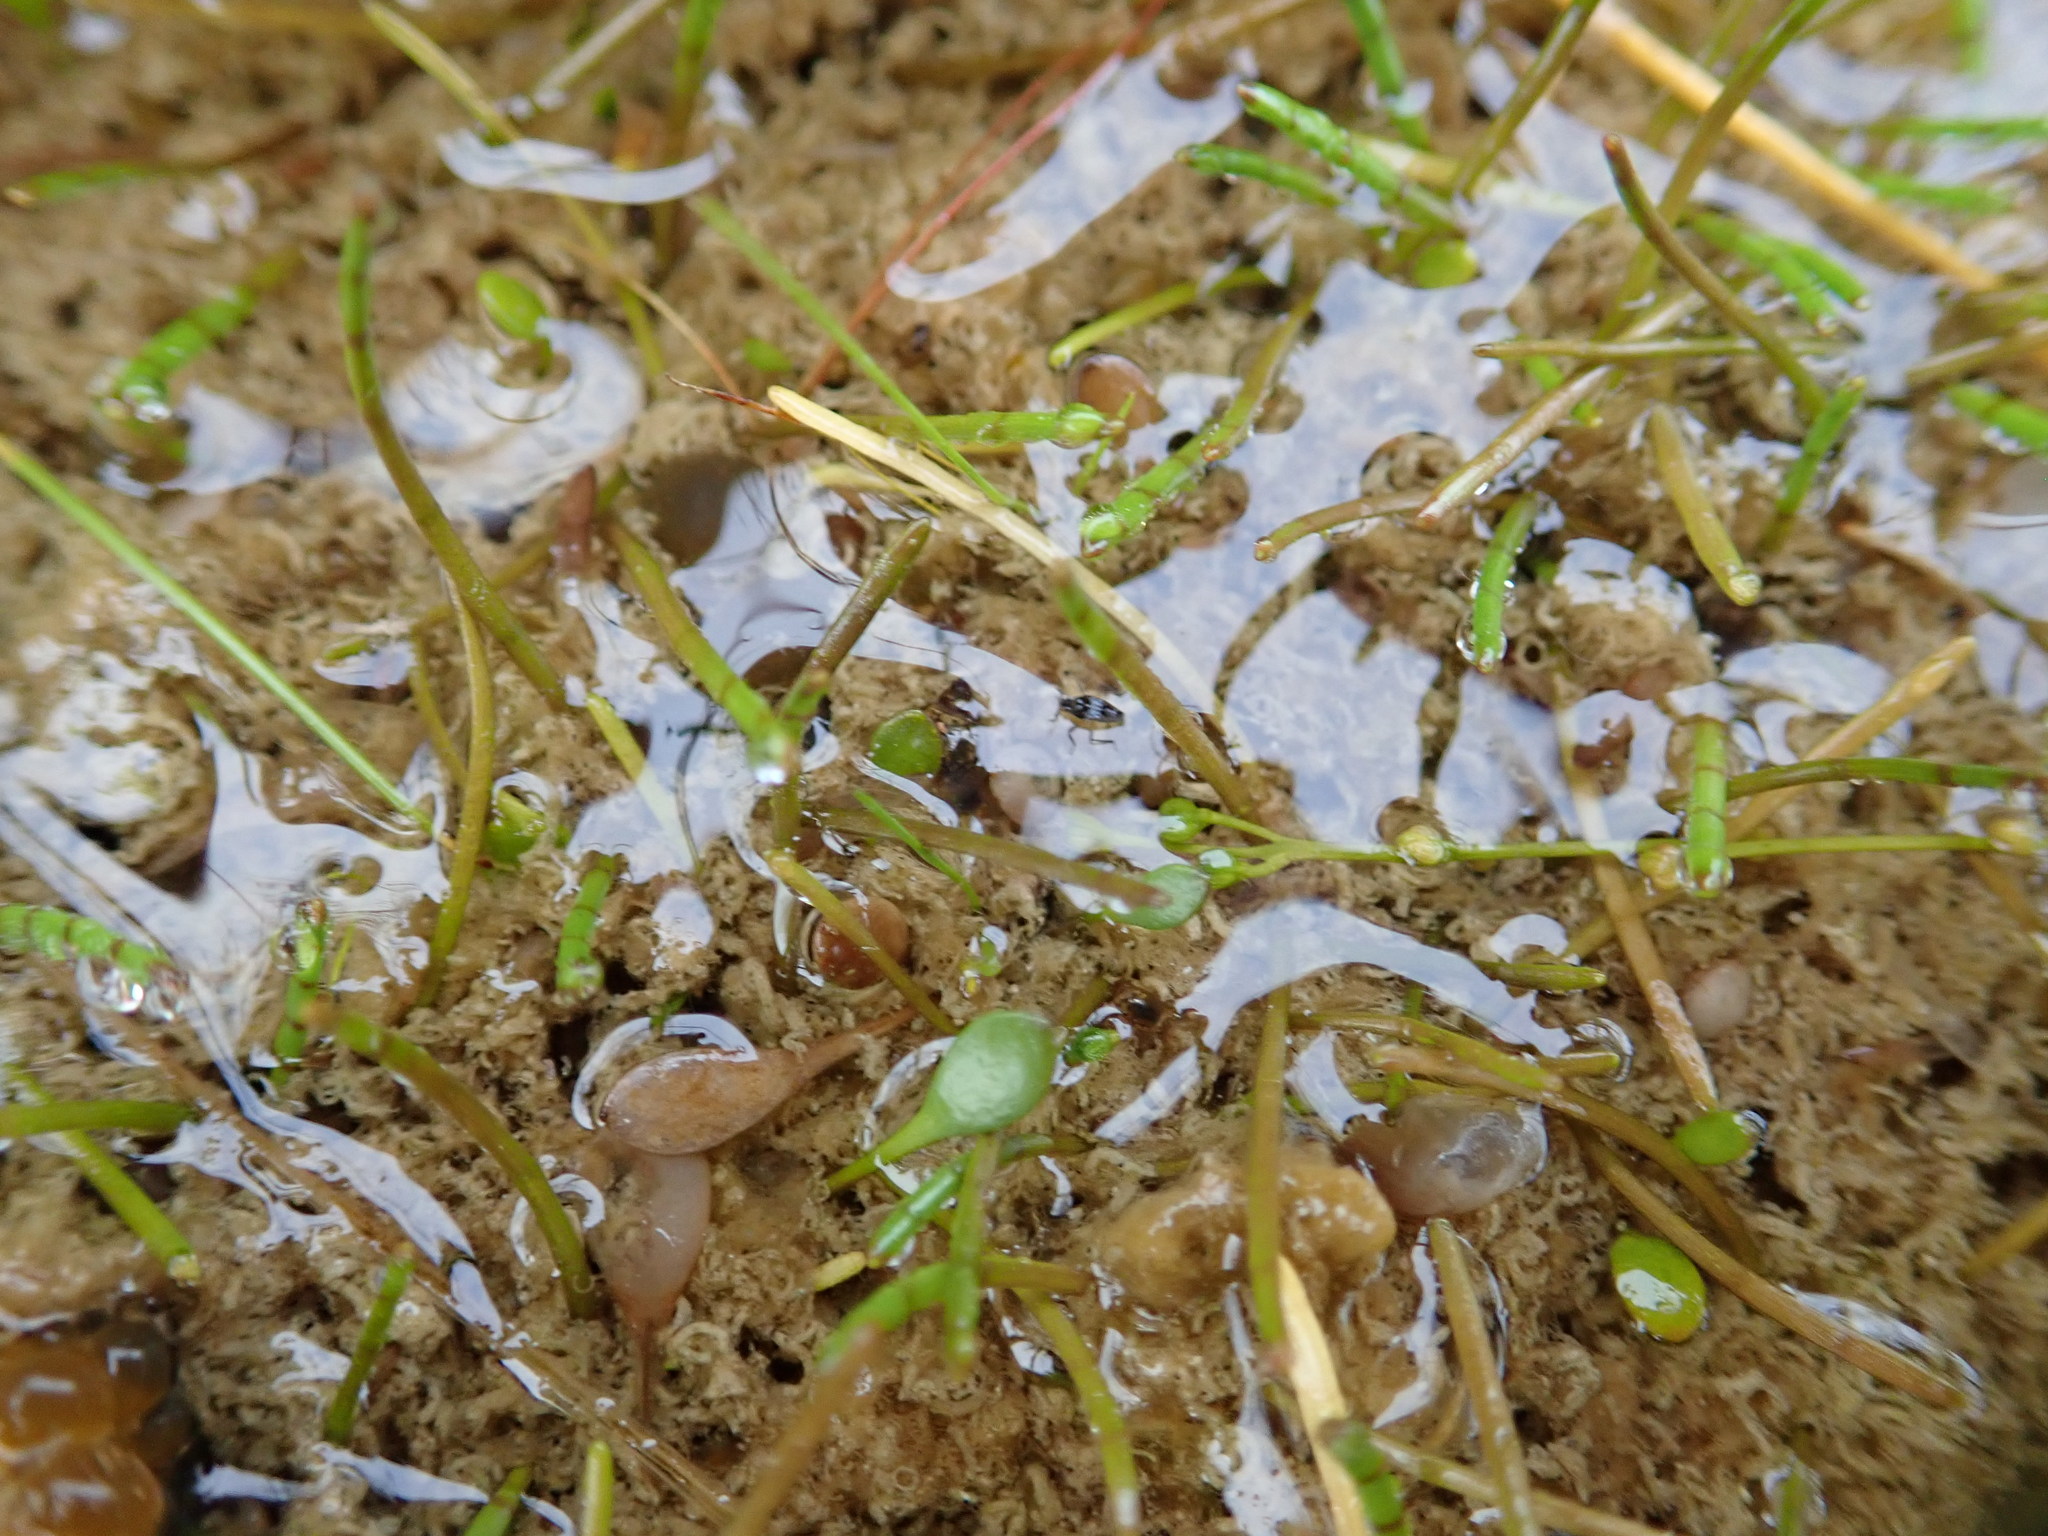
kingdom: Animalia
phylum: Arthropoda
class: Insecta
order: Hemiptera
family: Veliidae
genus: Microvelia
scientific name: Microvelia macgregori
